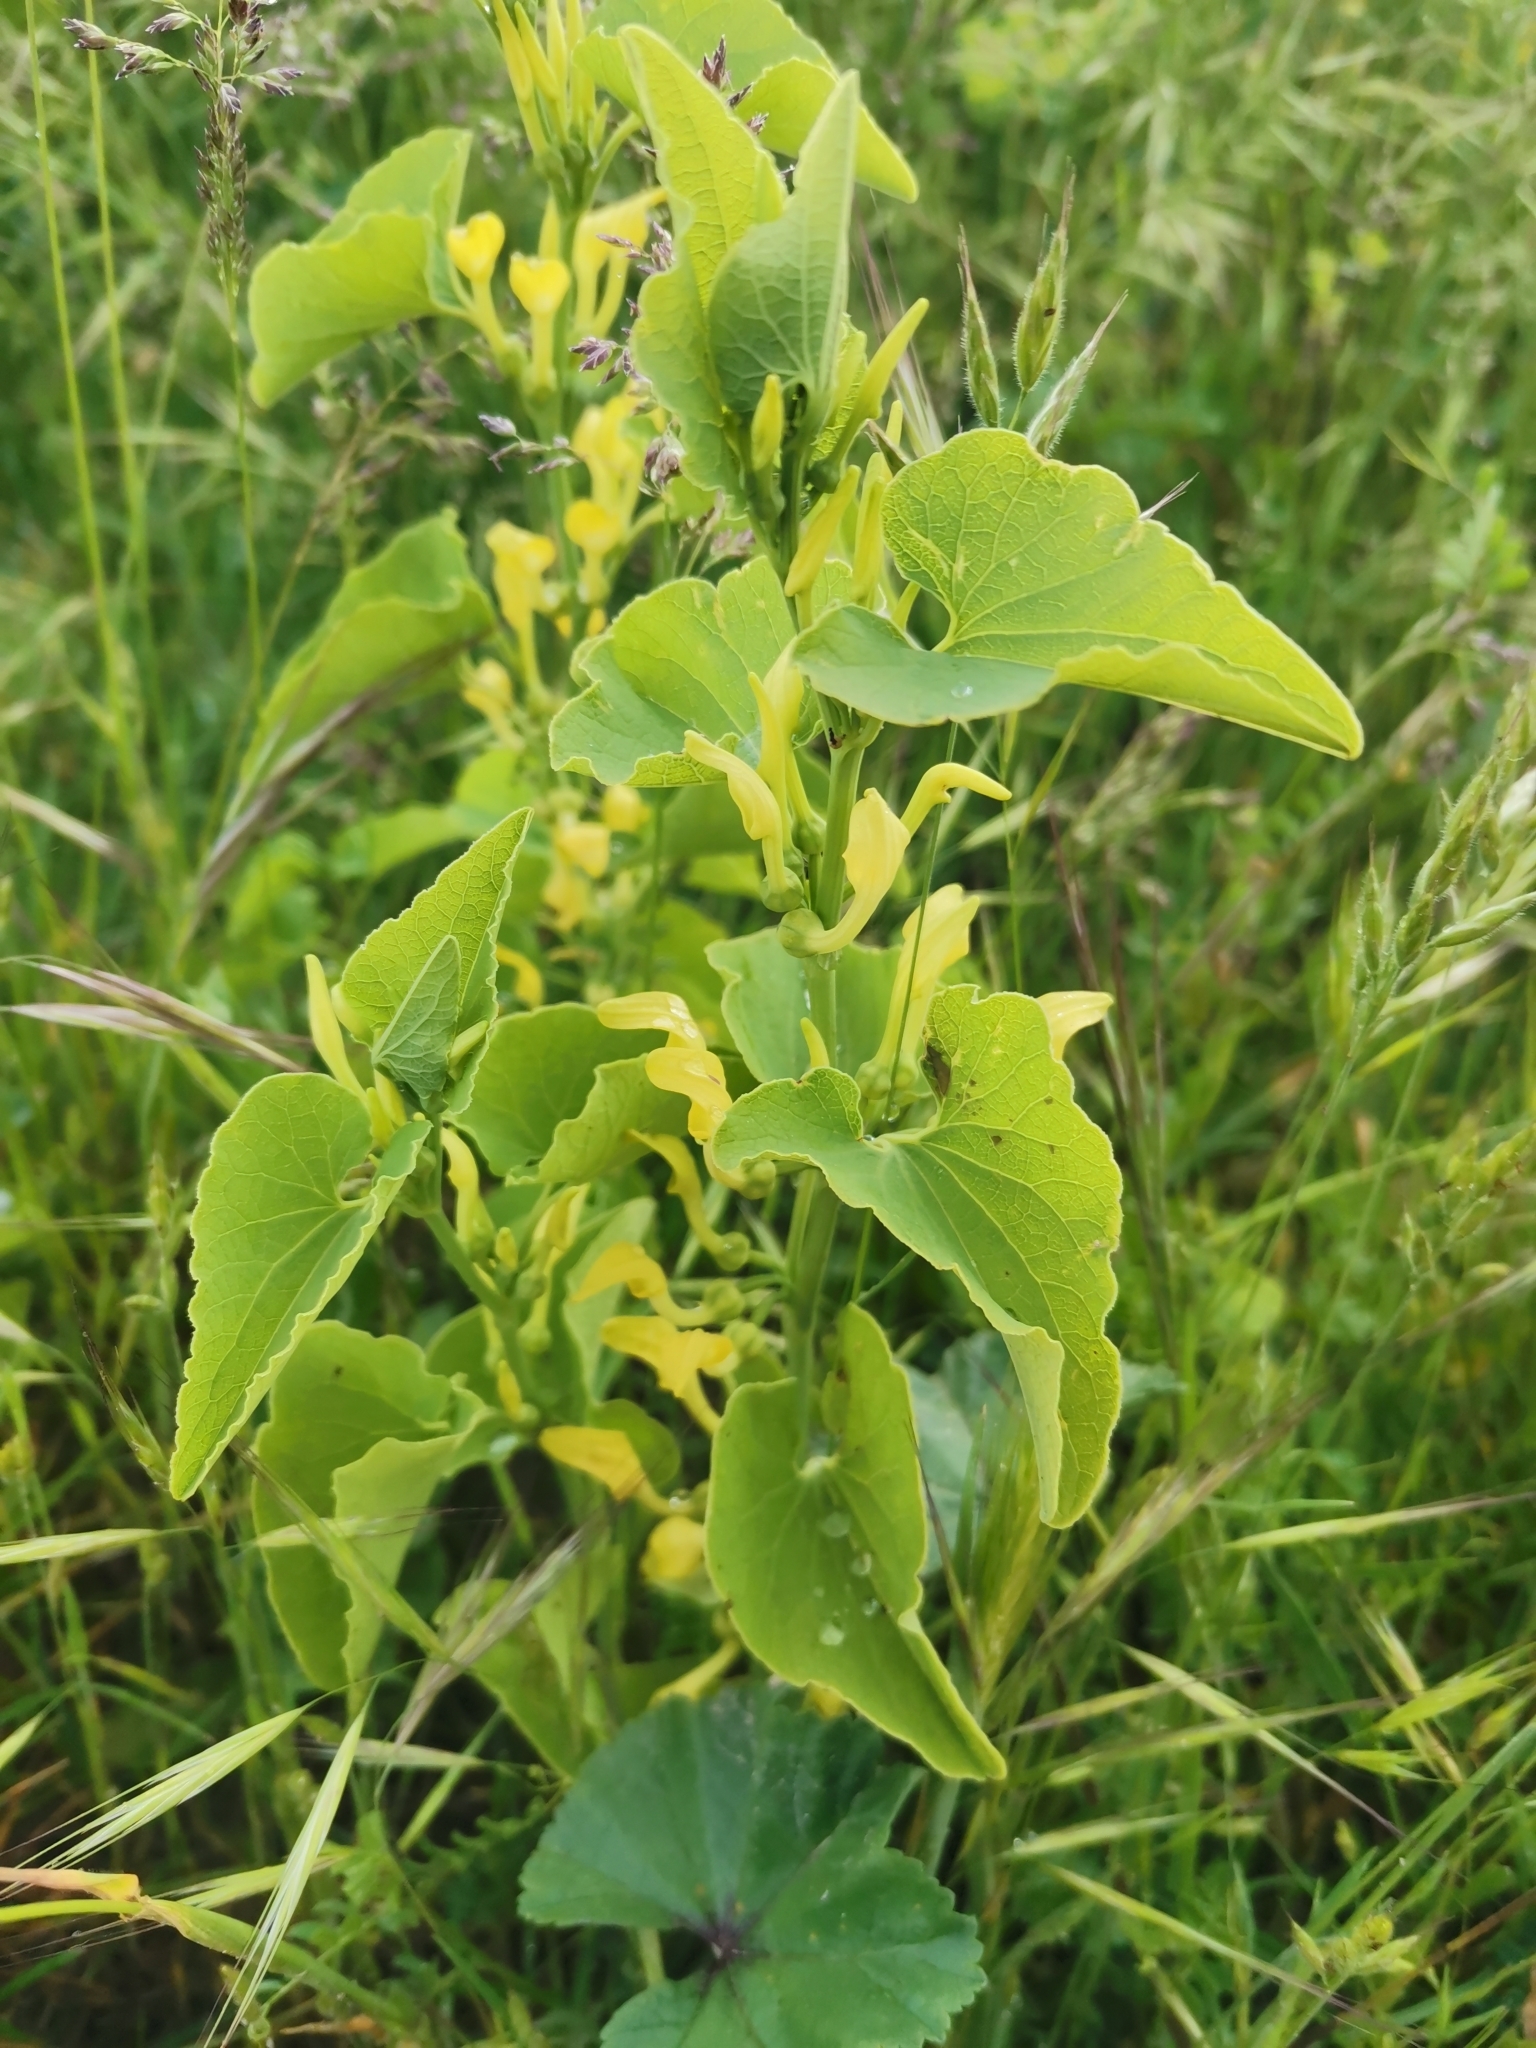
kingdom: Plantae
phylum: Tracheophyta
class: Magnoliopsida
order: Piperales
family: Aristolochiaceae
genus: Aristolochia
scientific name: Aristolochia clematitis
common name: Birthwort
